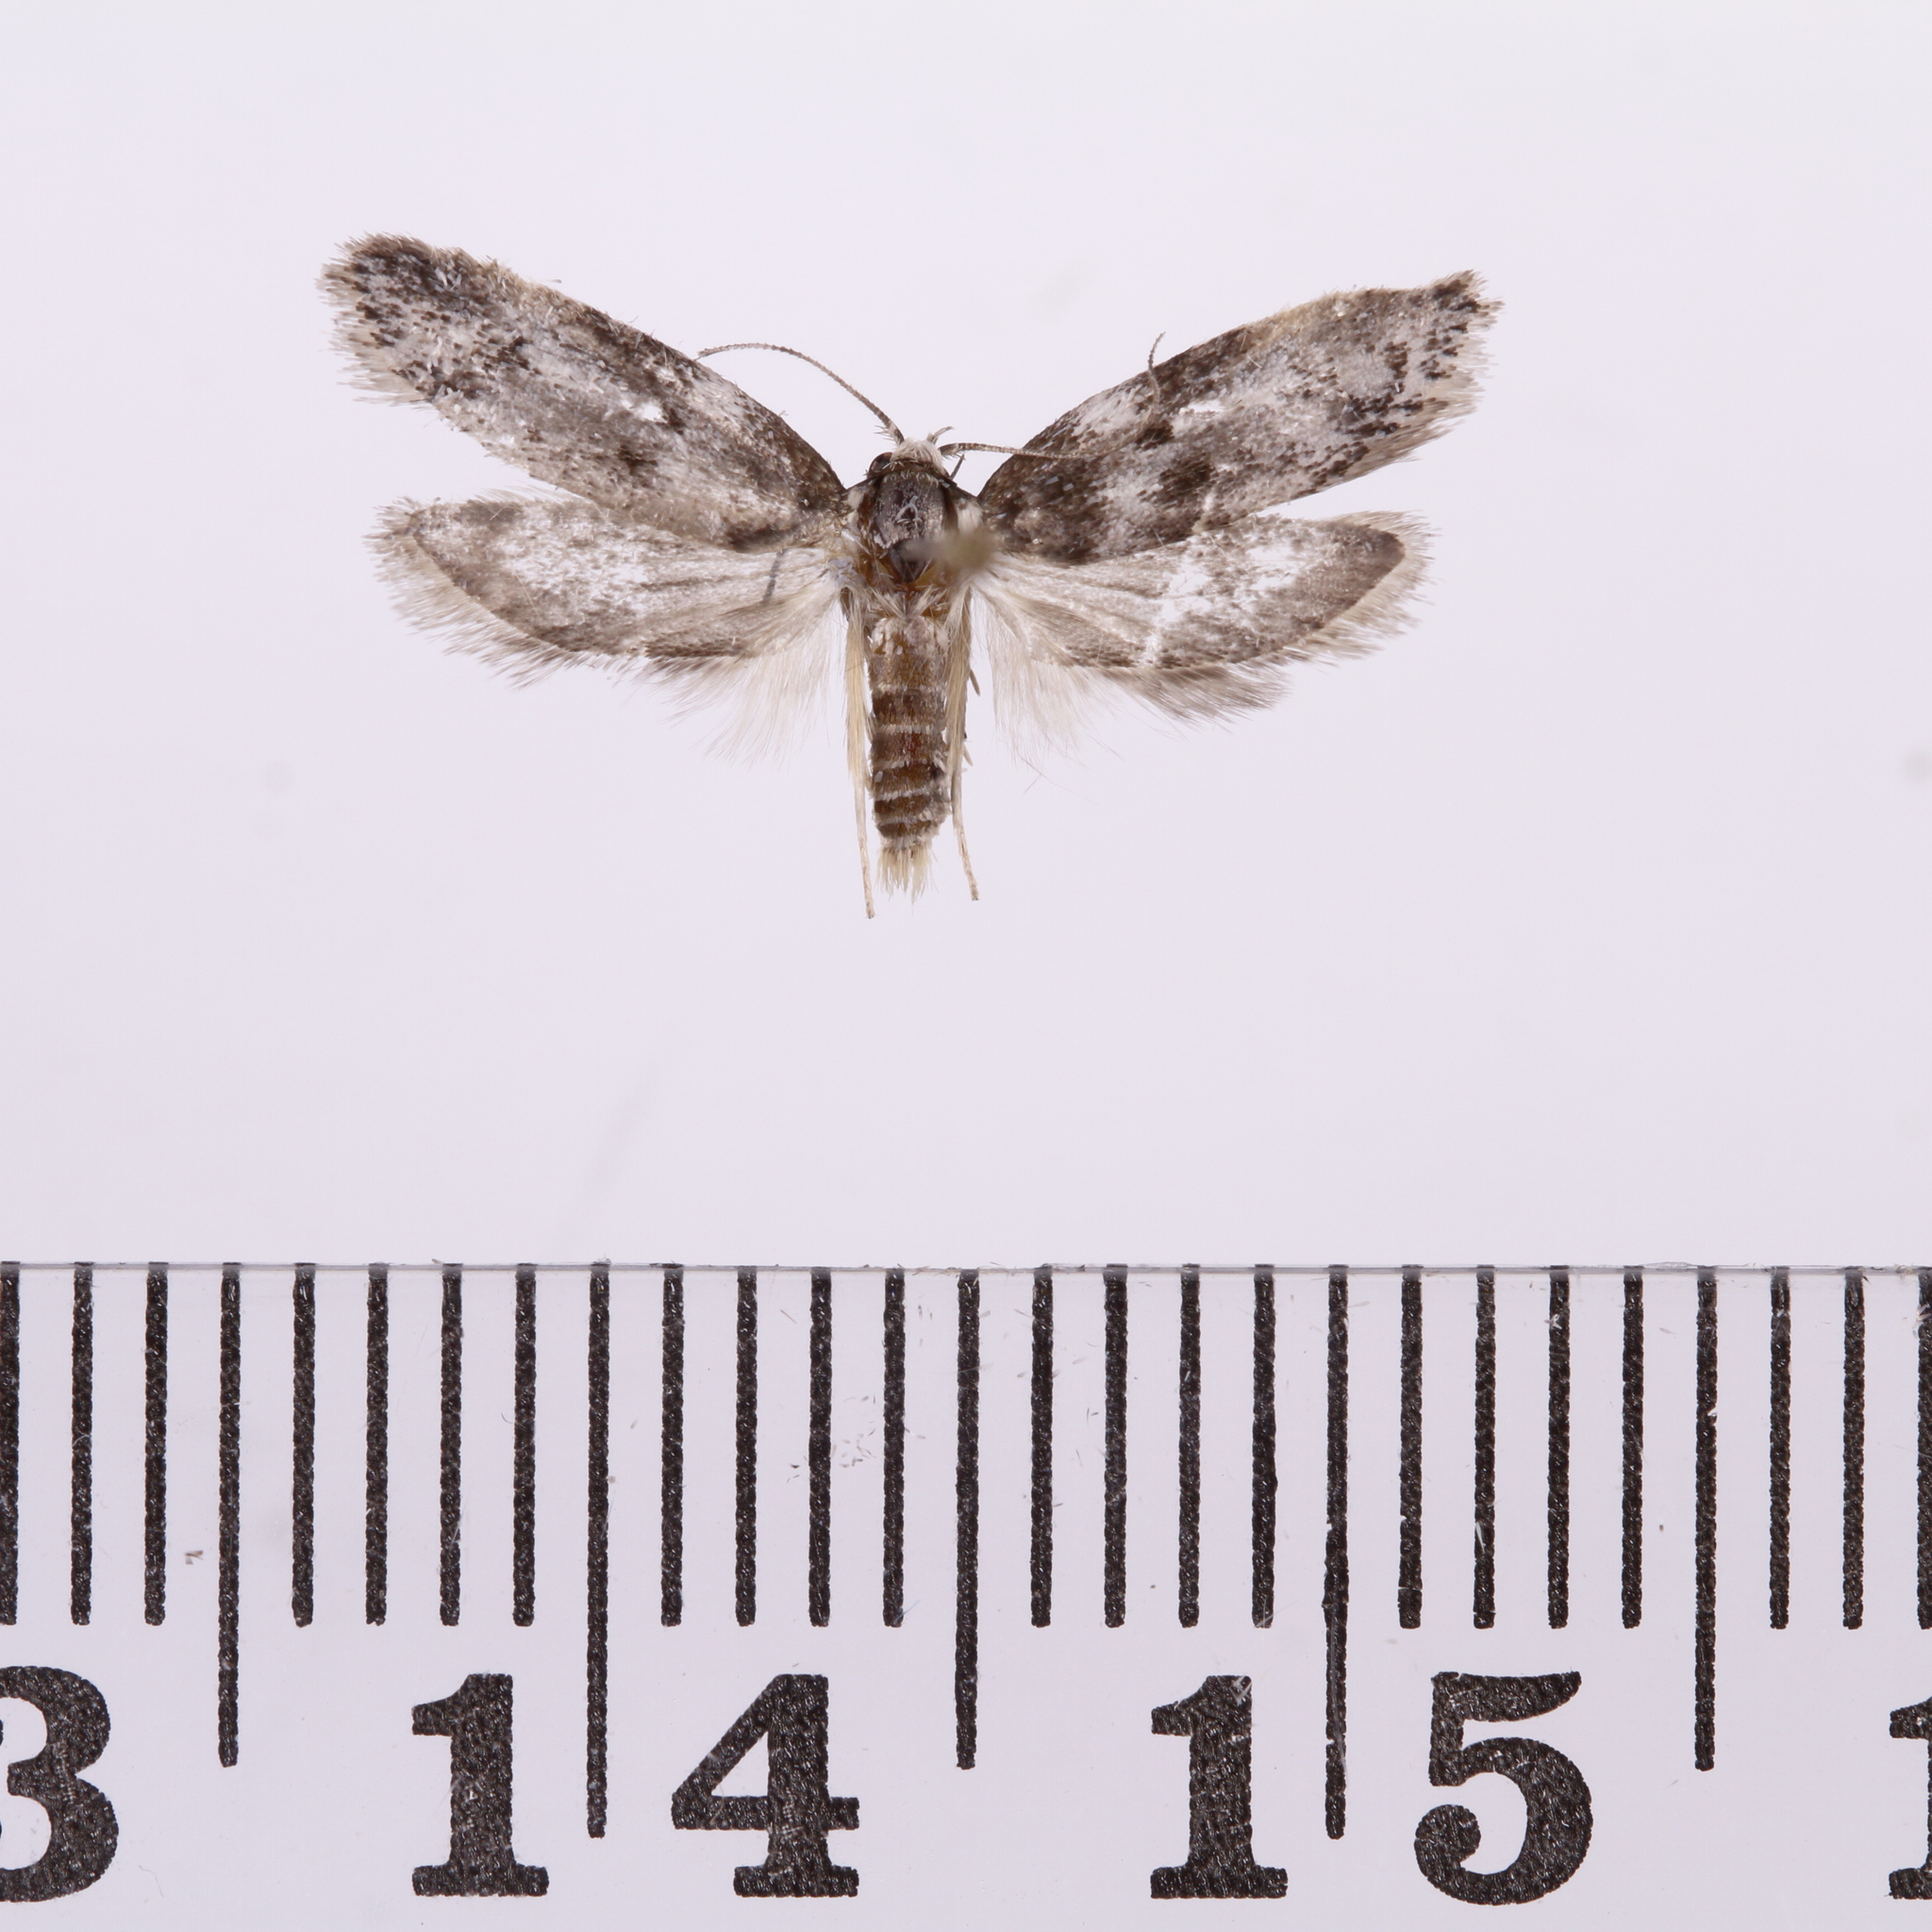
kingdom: Animalia
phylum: Arthropoda
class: Insecta
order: Lepidoptera
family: Oecophoridae
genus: Trachypepla
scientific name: Trachypepla photinella
